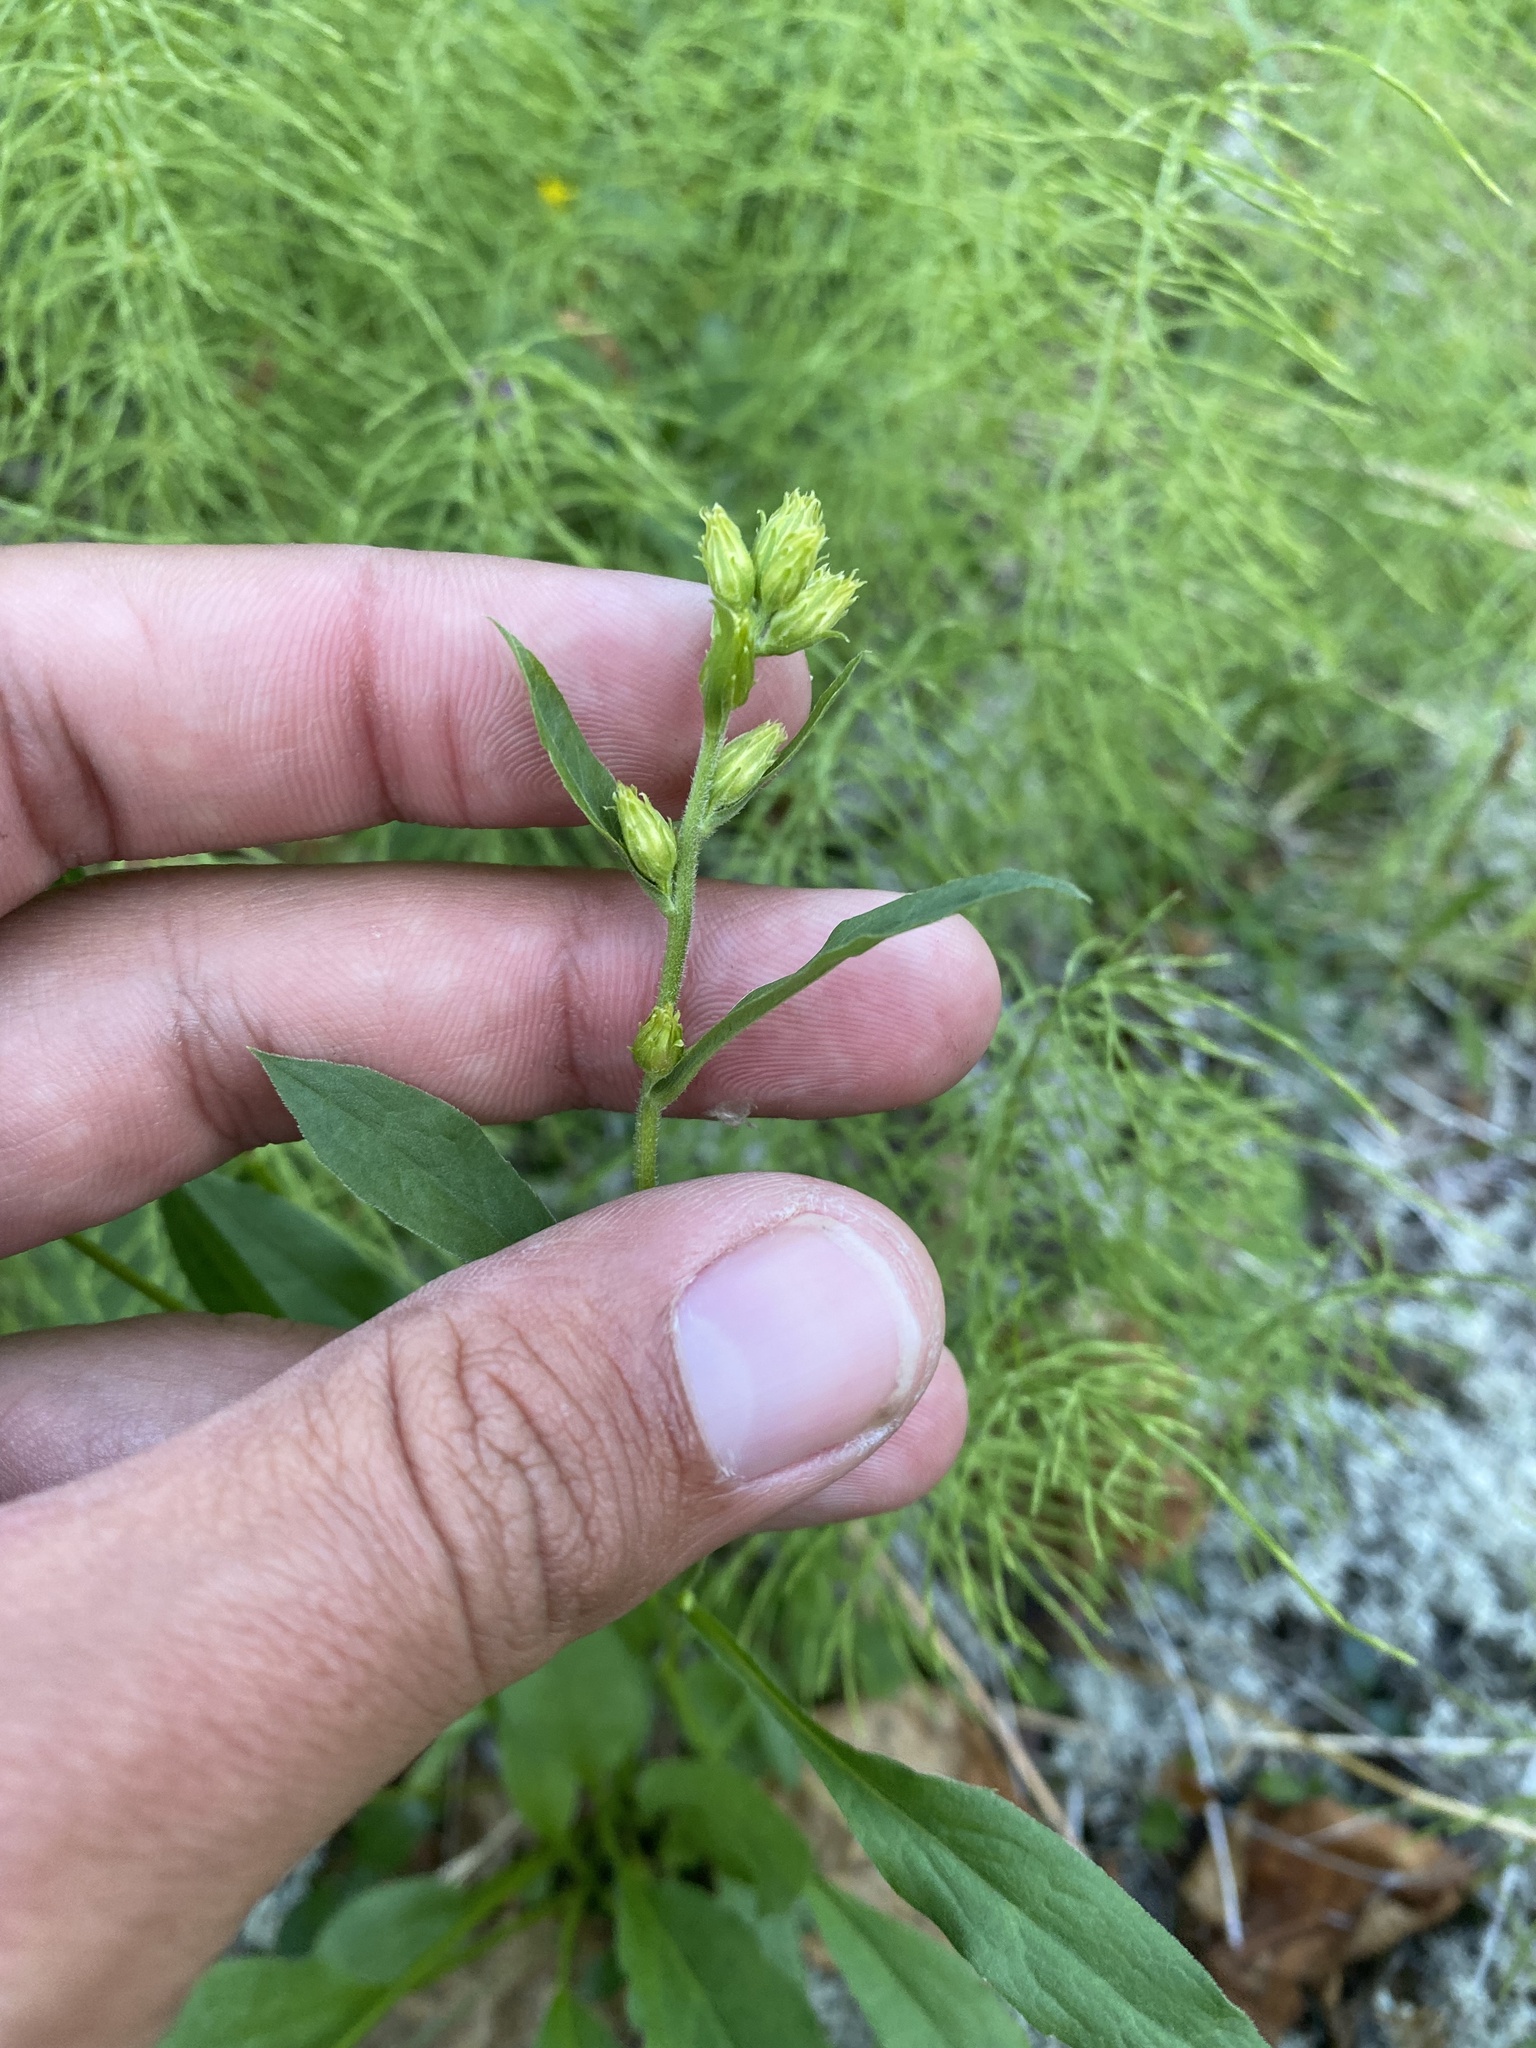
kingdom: Plantae
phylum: Tracheophyta
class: Magnoliopsida
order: Asterales
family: Asteraceae
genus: Solidago
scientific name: Solidago dahurica
